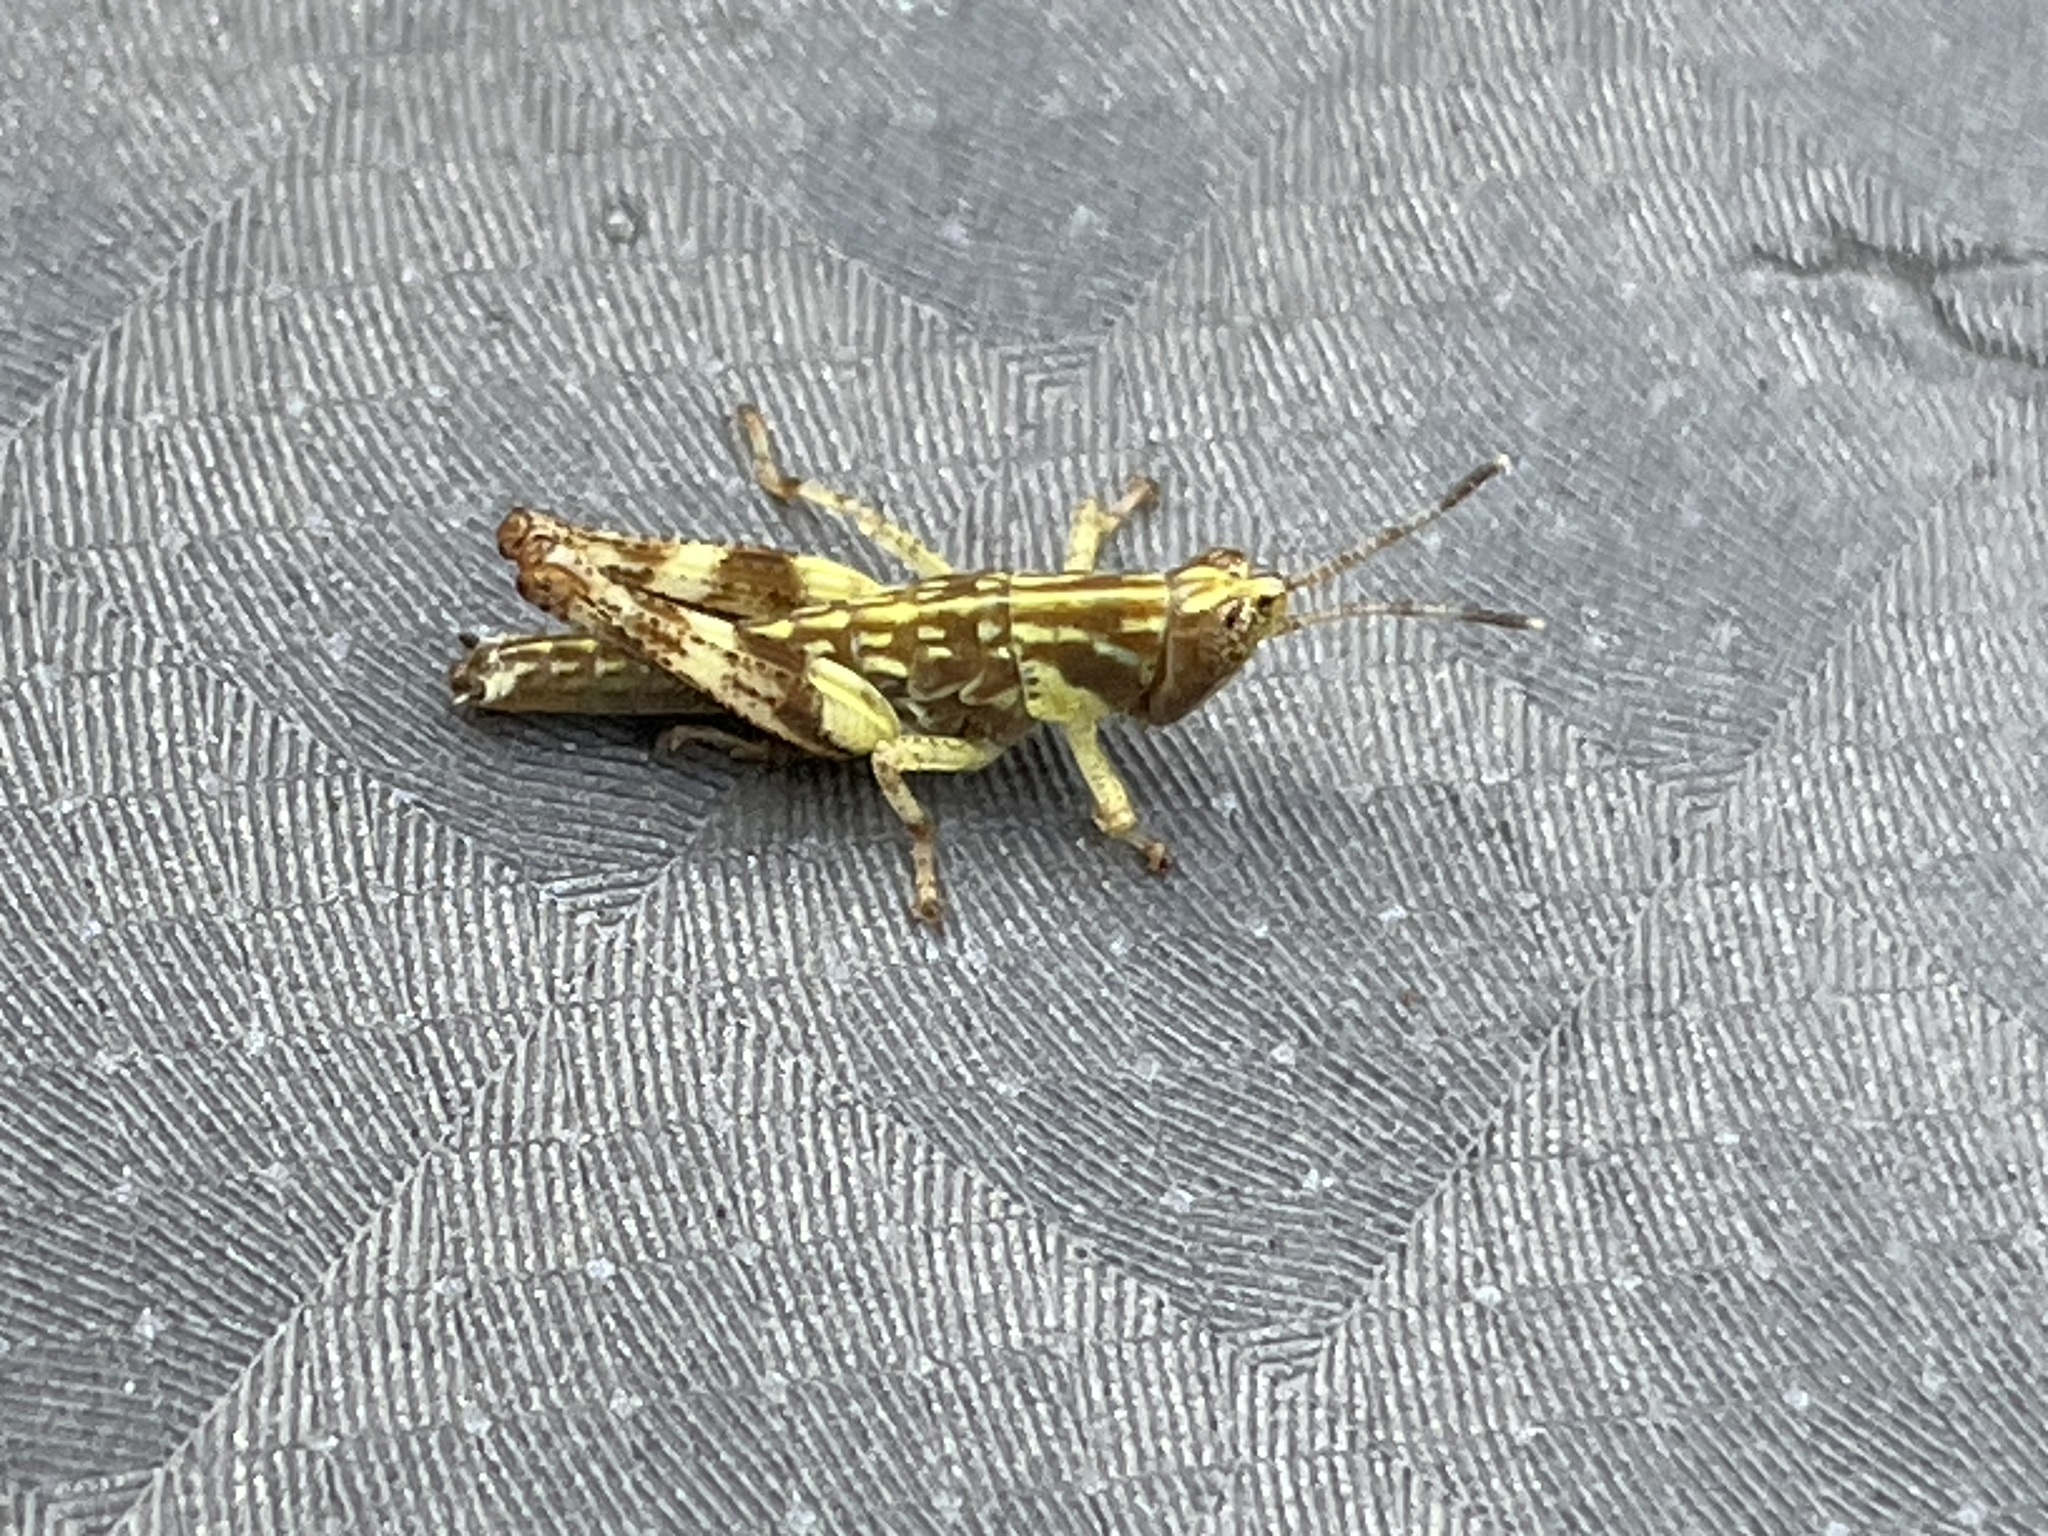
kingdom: Animalia
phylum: Arthropoda
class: Insecta
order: Orthoptera
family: Acrididae
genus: Gesonula
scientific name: Gesonula mundata
